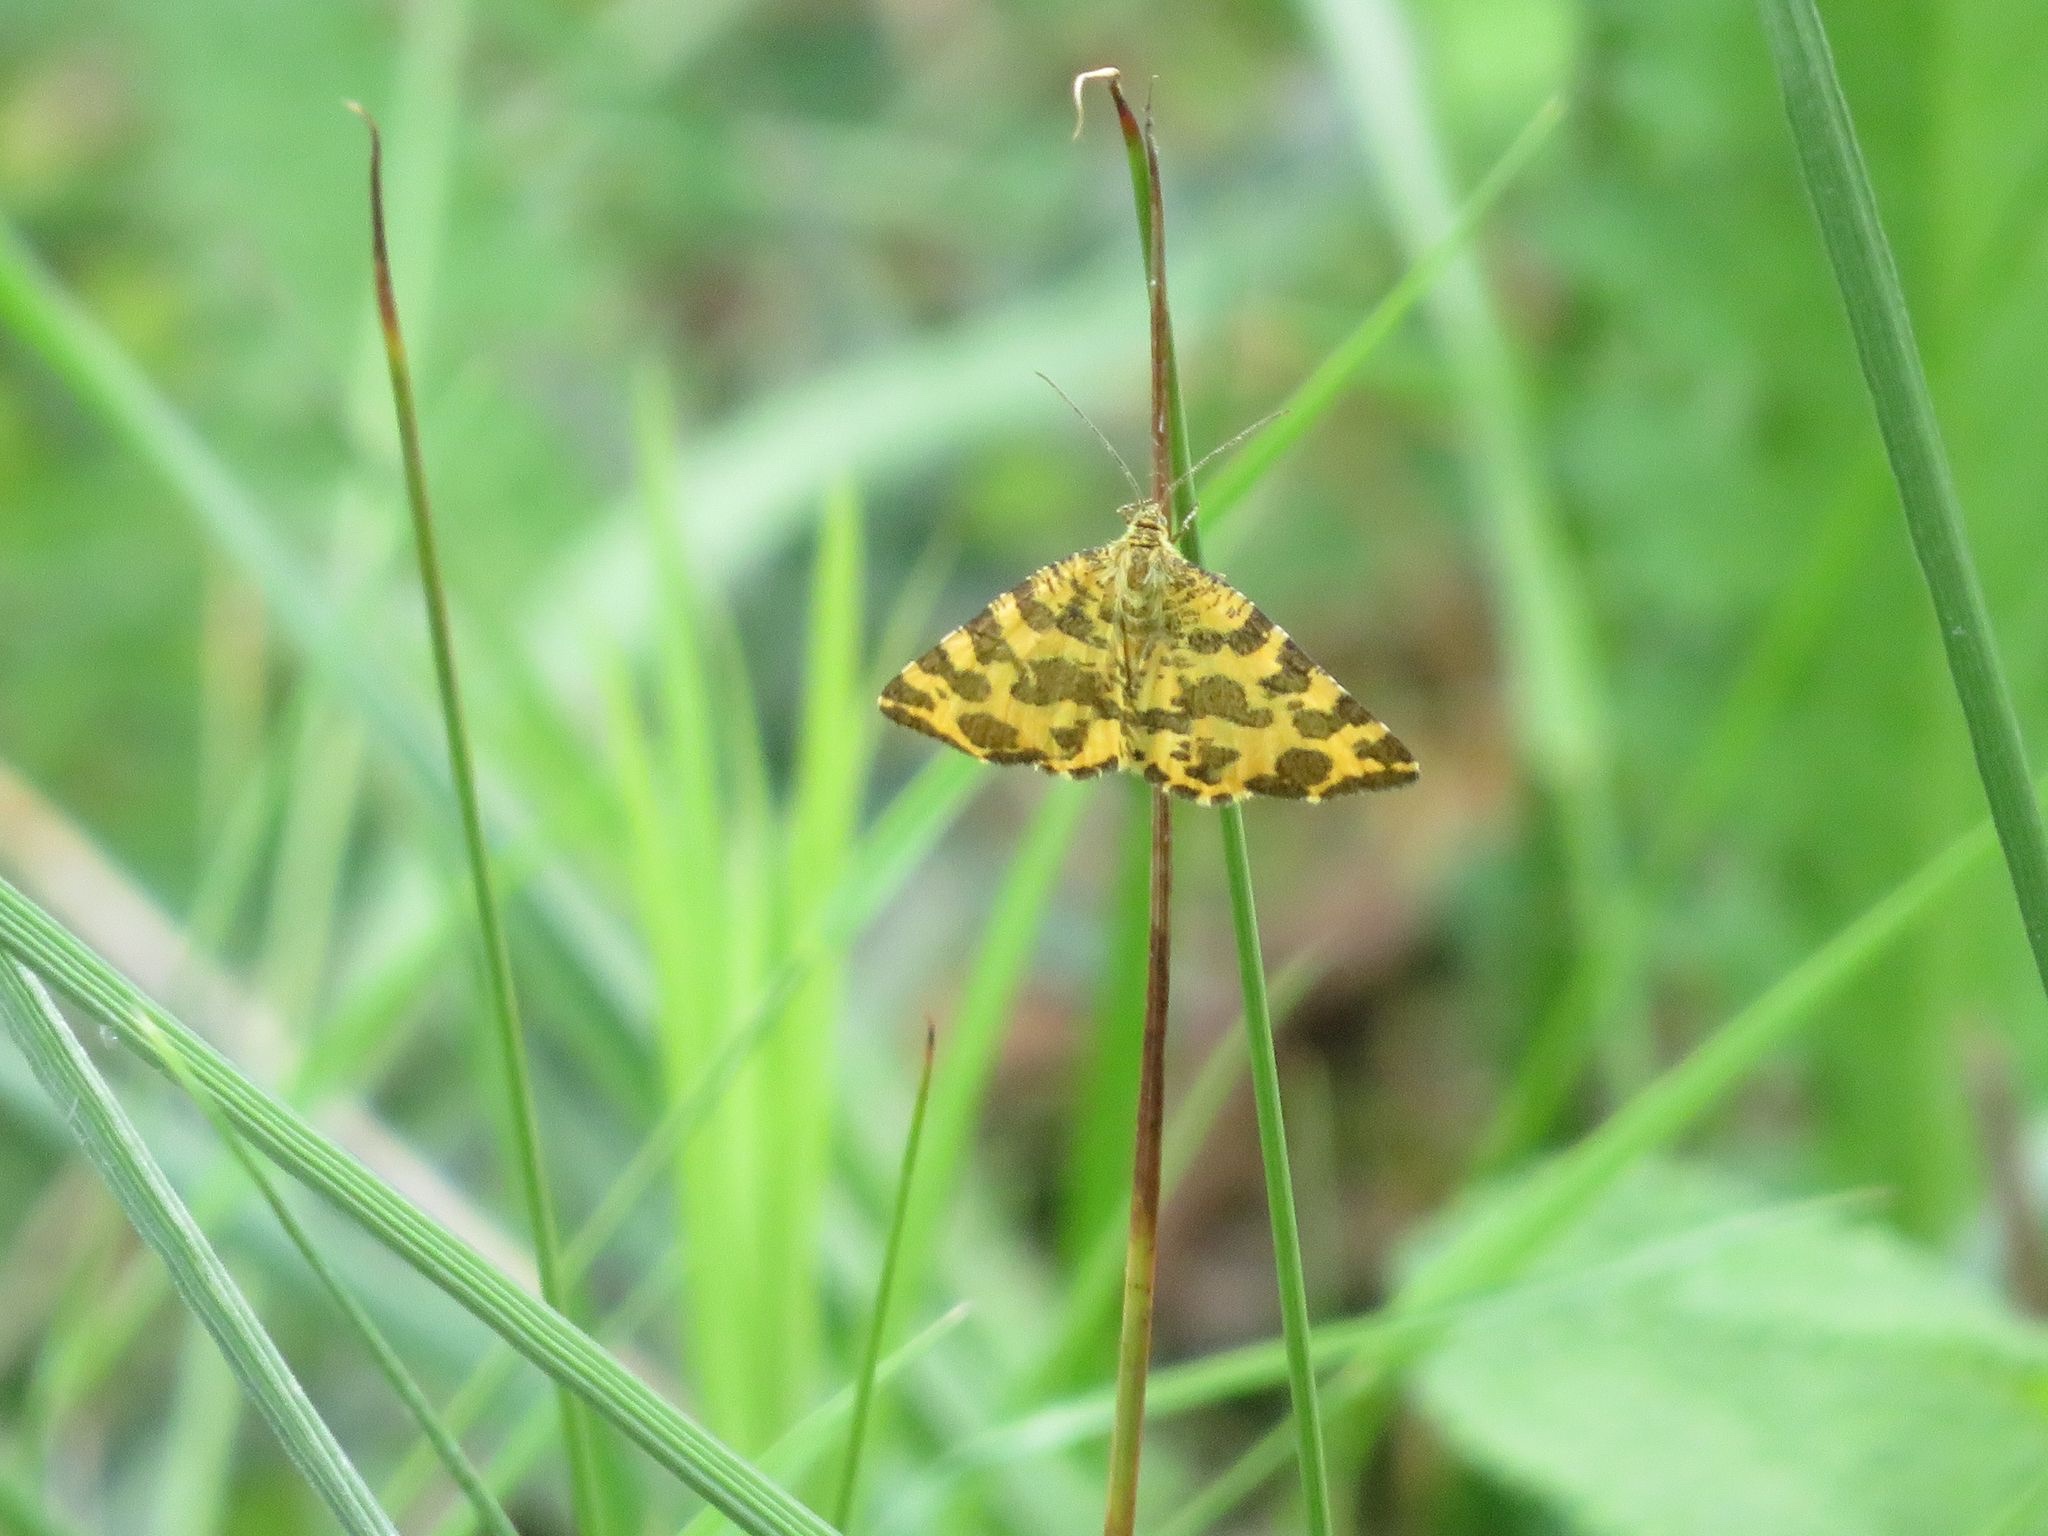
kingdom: Animalia
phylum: Arthropoda
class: Insecta
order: Lepidoptera
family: Geometridae
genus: Pseudopanthera
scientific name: Pseudopanthera macularia
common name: Speckled yellow
